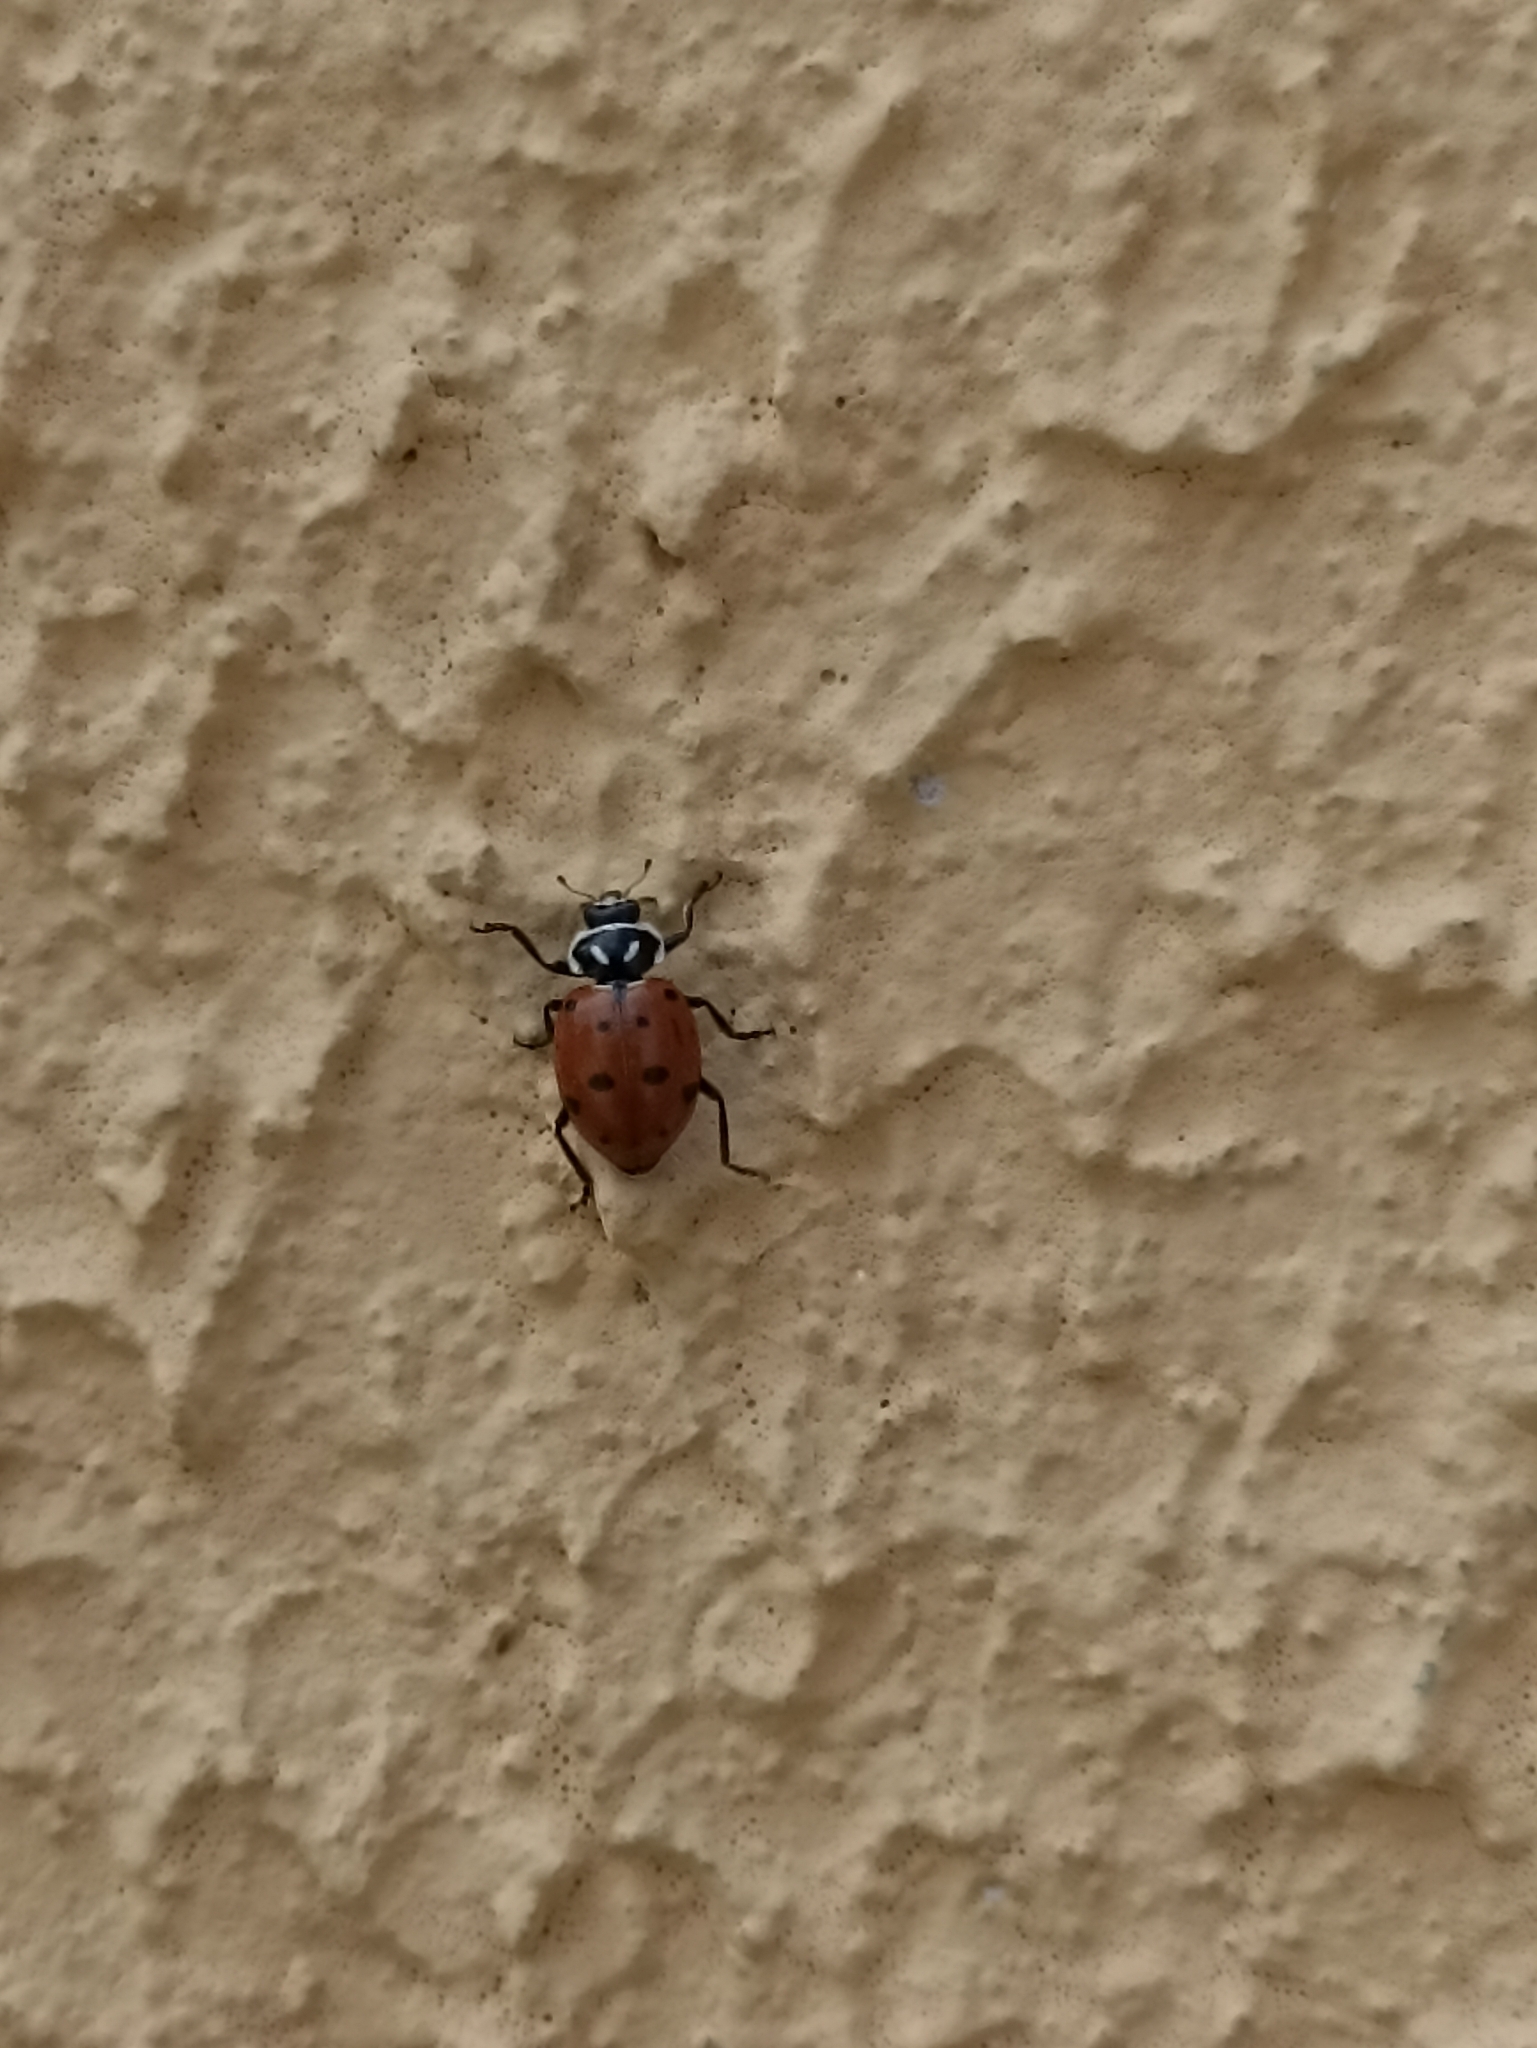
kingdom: Animalia
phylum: Arthropoda
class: Insecta
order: Coleoptera
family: Coccinellidae
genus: Hippodamia
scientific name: Hippodamia convergens
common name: Convergent lady beetle
